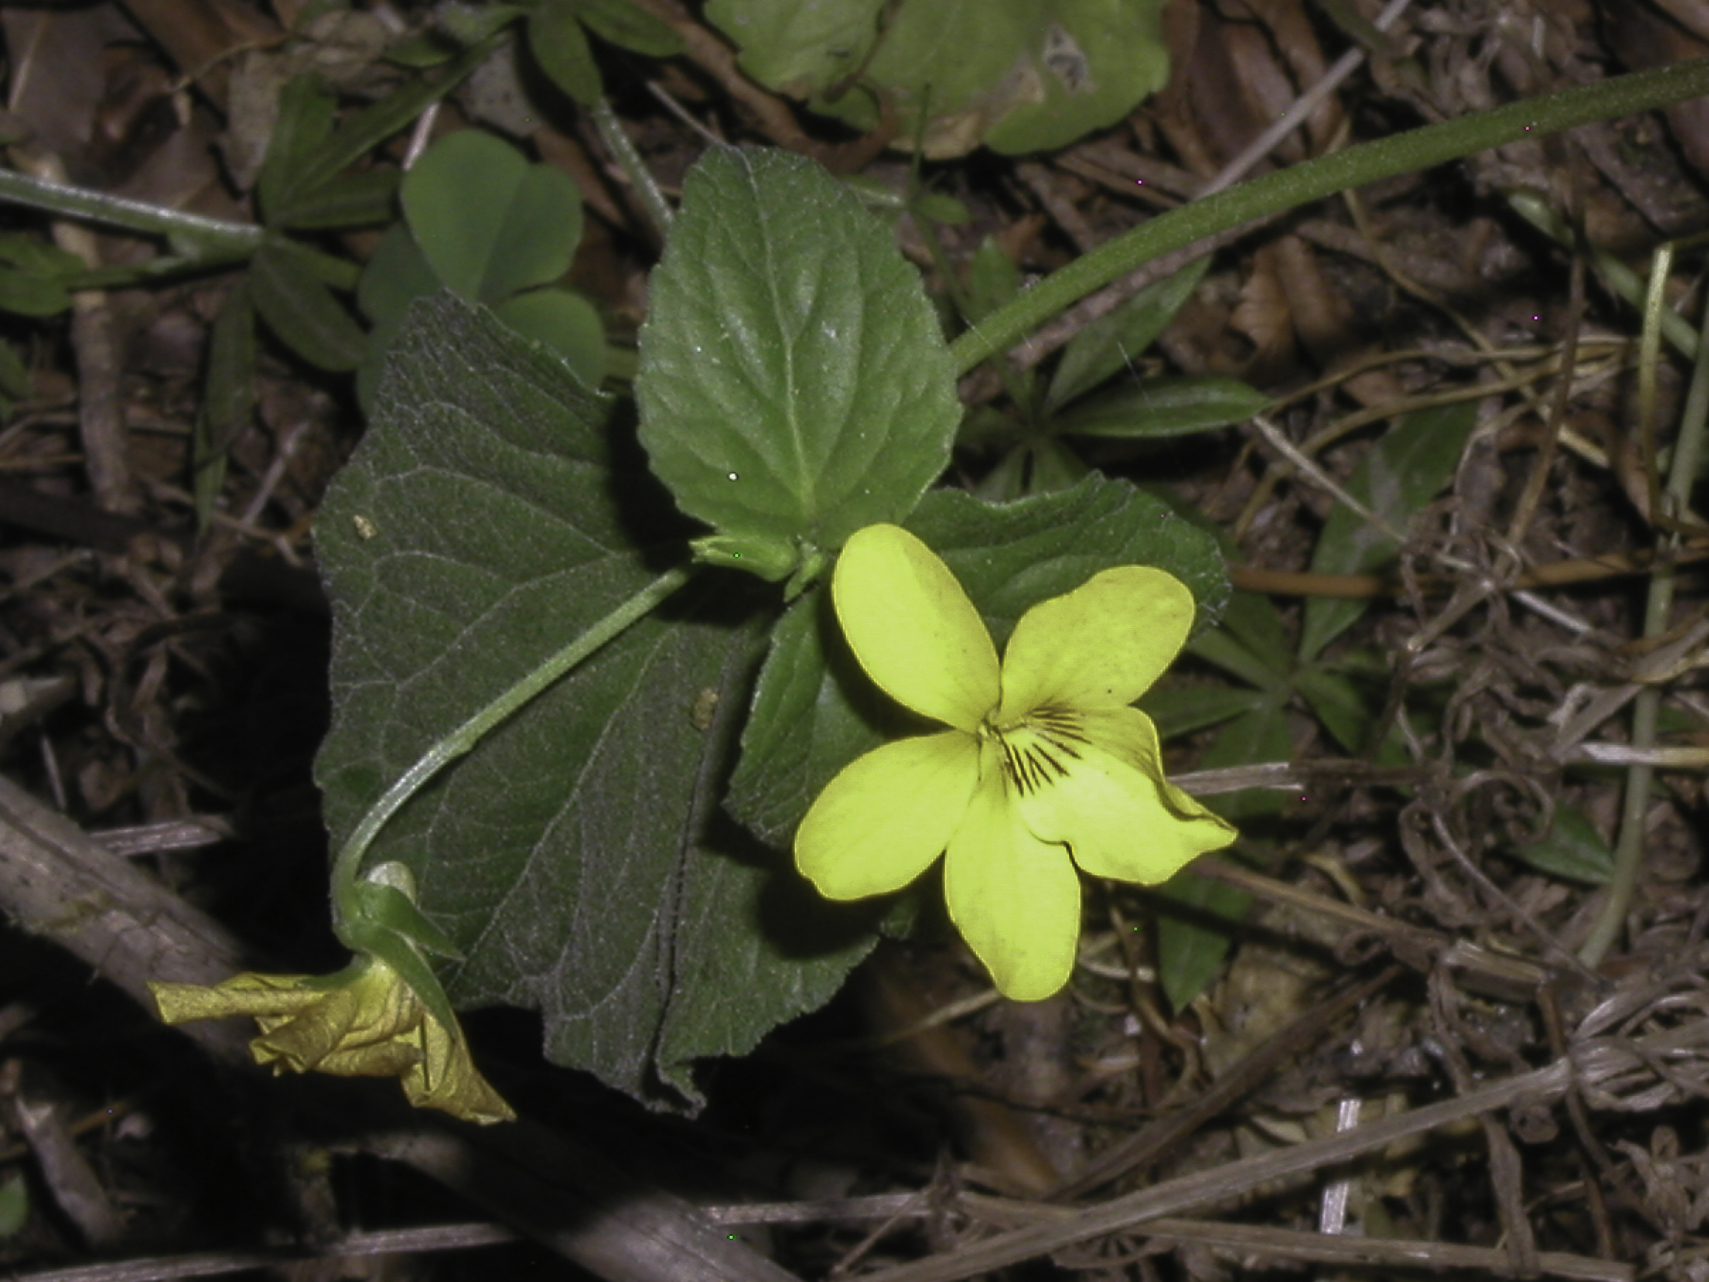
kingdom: Plantae
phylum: Tracheophyta
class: Magnoliopsida
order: Malpighiales
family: Violaceae
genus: Viola
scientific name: Viola glabella
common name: Stream violet
